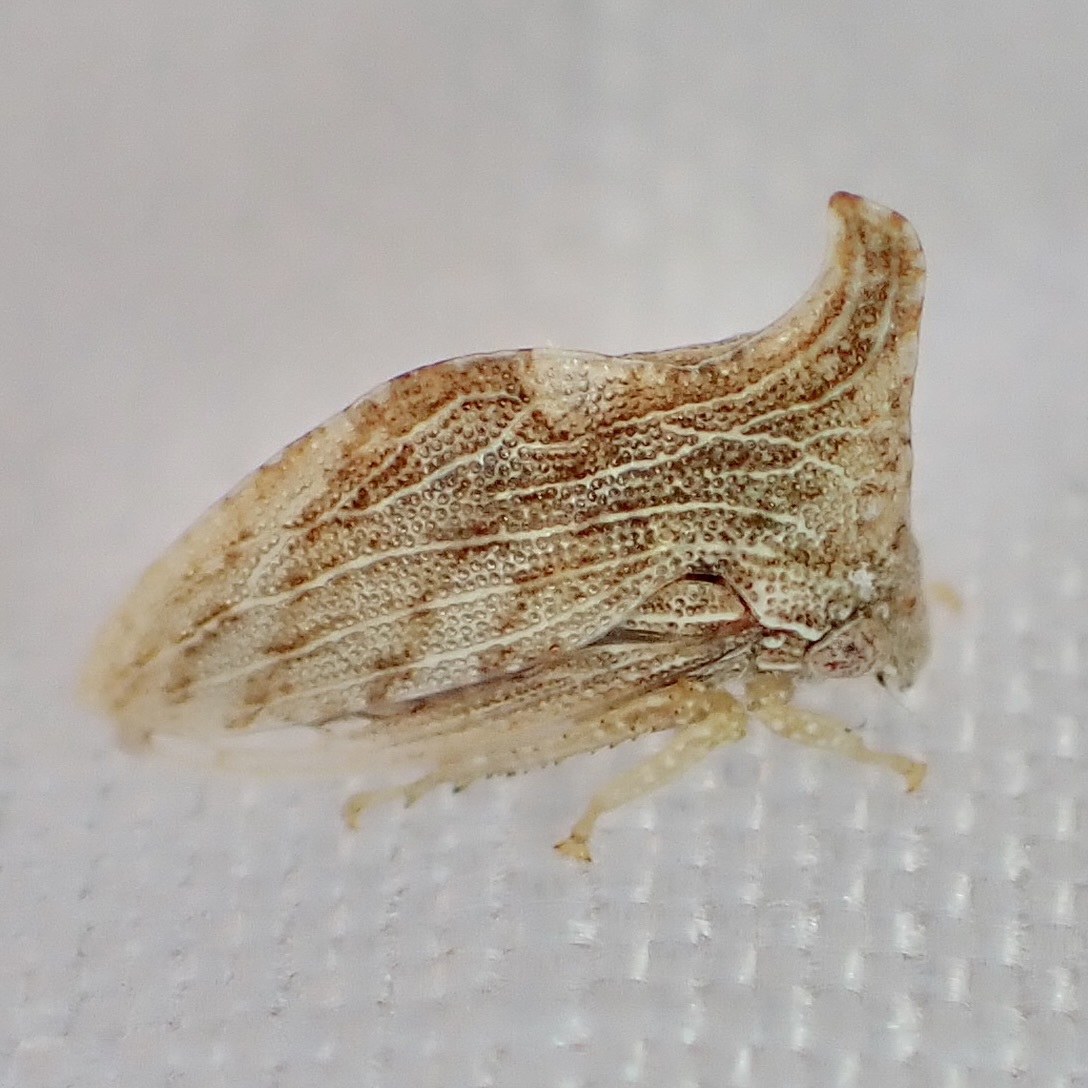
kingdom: Animalia
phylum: Arthropoda
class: Insecta
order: Hemiptera
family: Membracidae
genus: Publilia
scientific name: Publilia erecta
